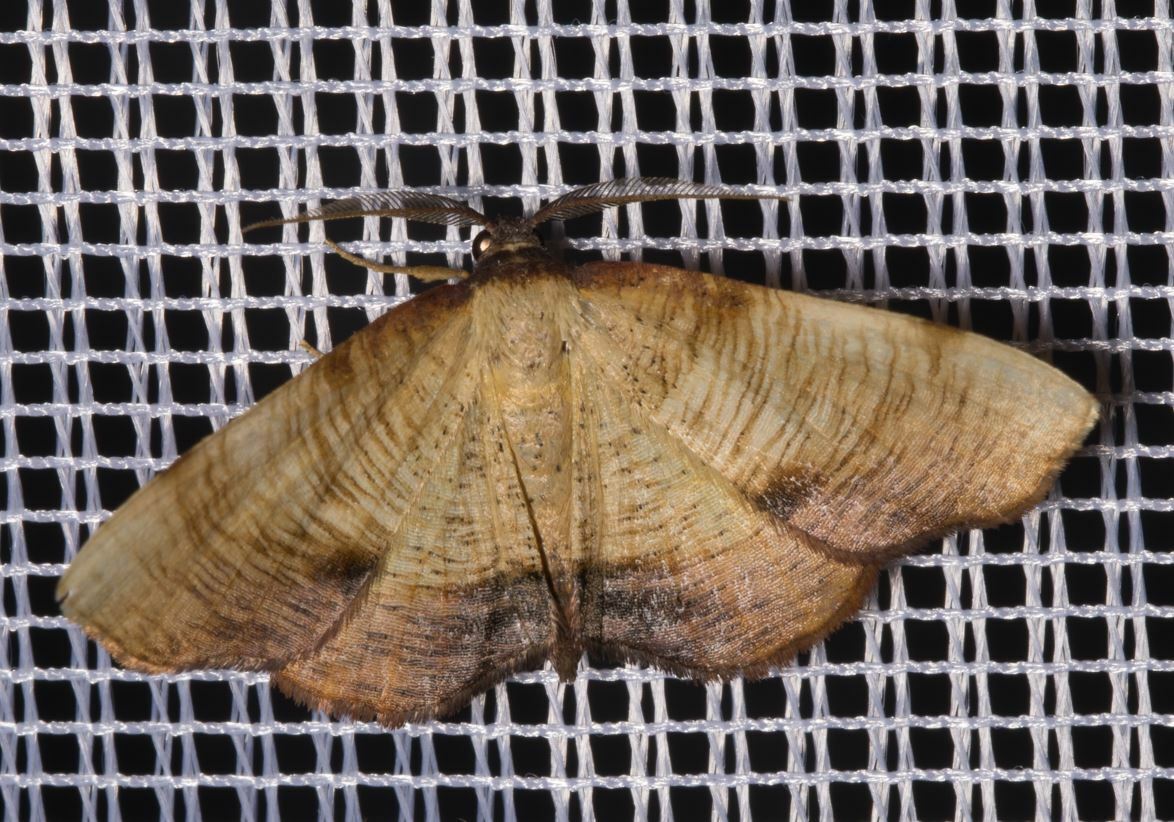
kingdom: Animalia
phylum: Arthropoda
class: Insecta
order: Lepidoptera
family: Geometridae
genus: Plagodis
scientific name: Plagodis dolabraria
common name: Scorched wing
